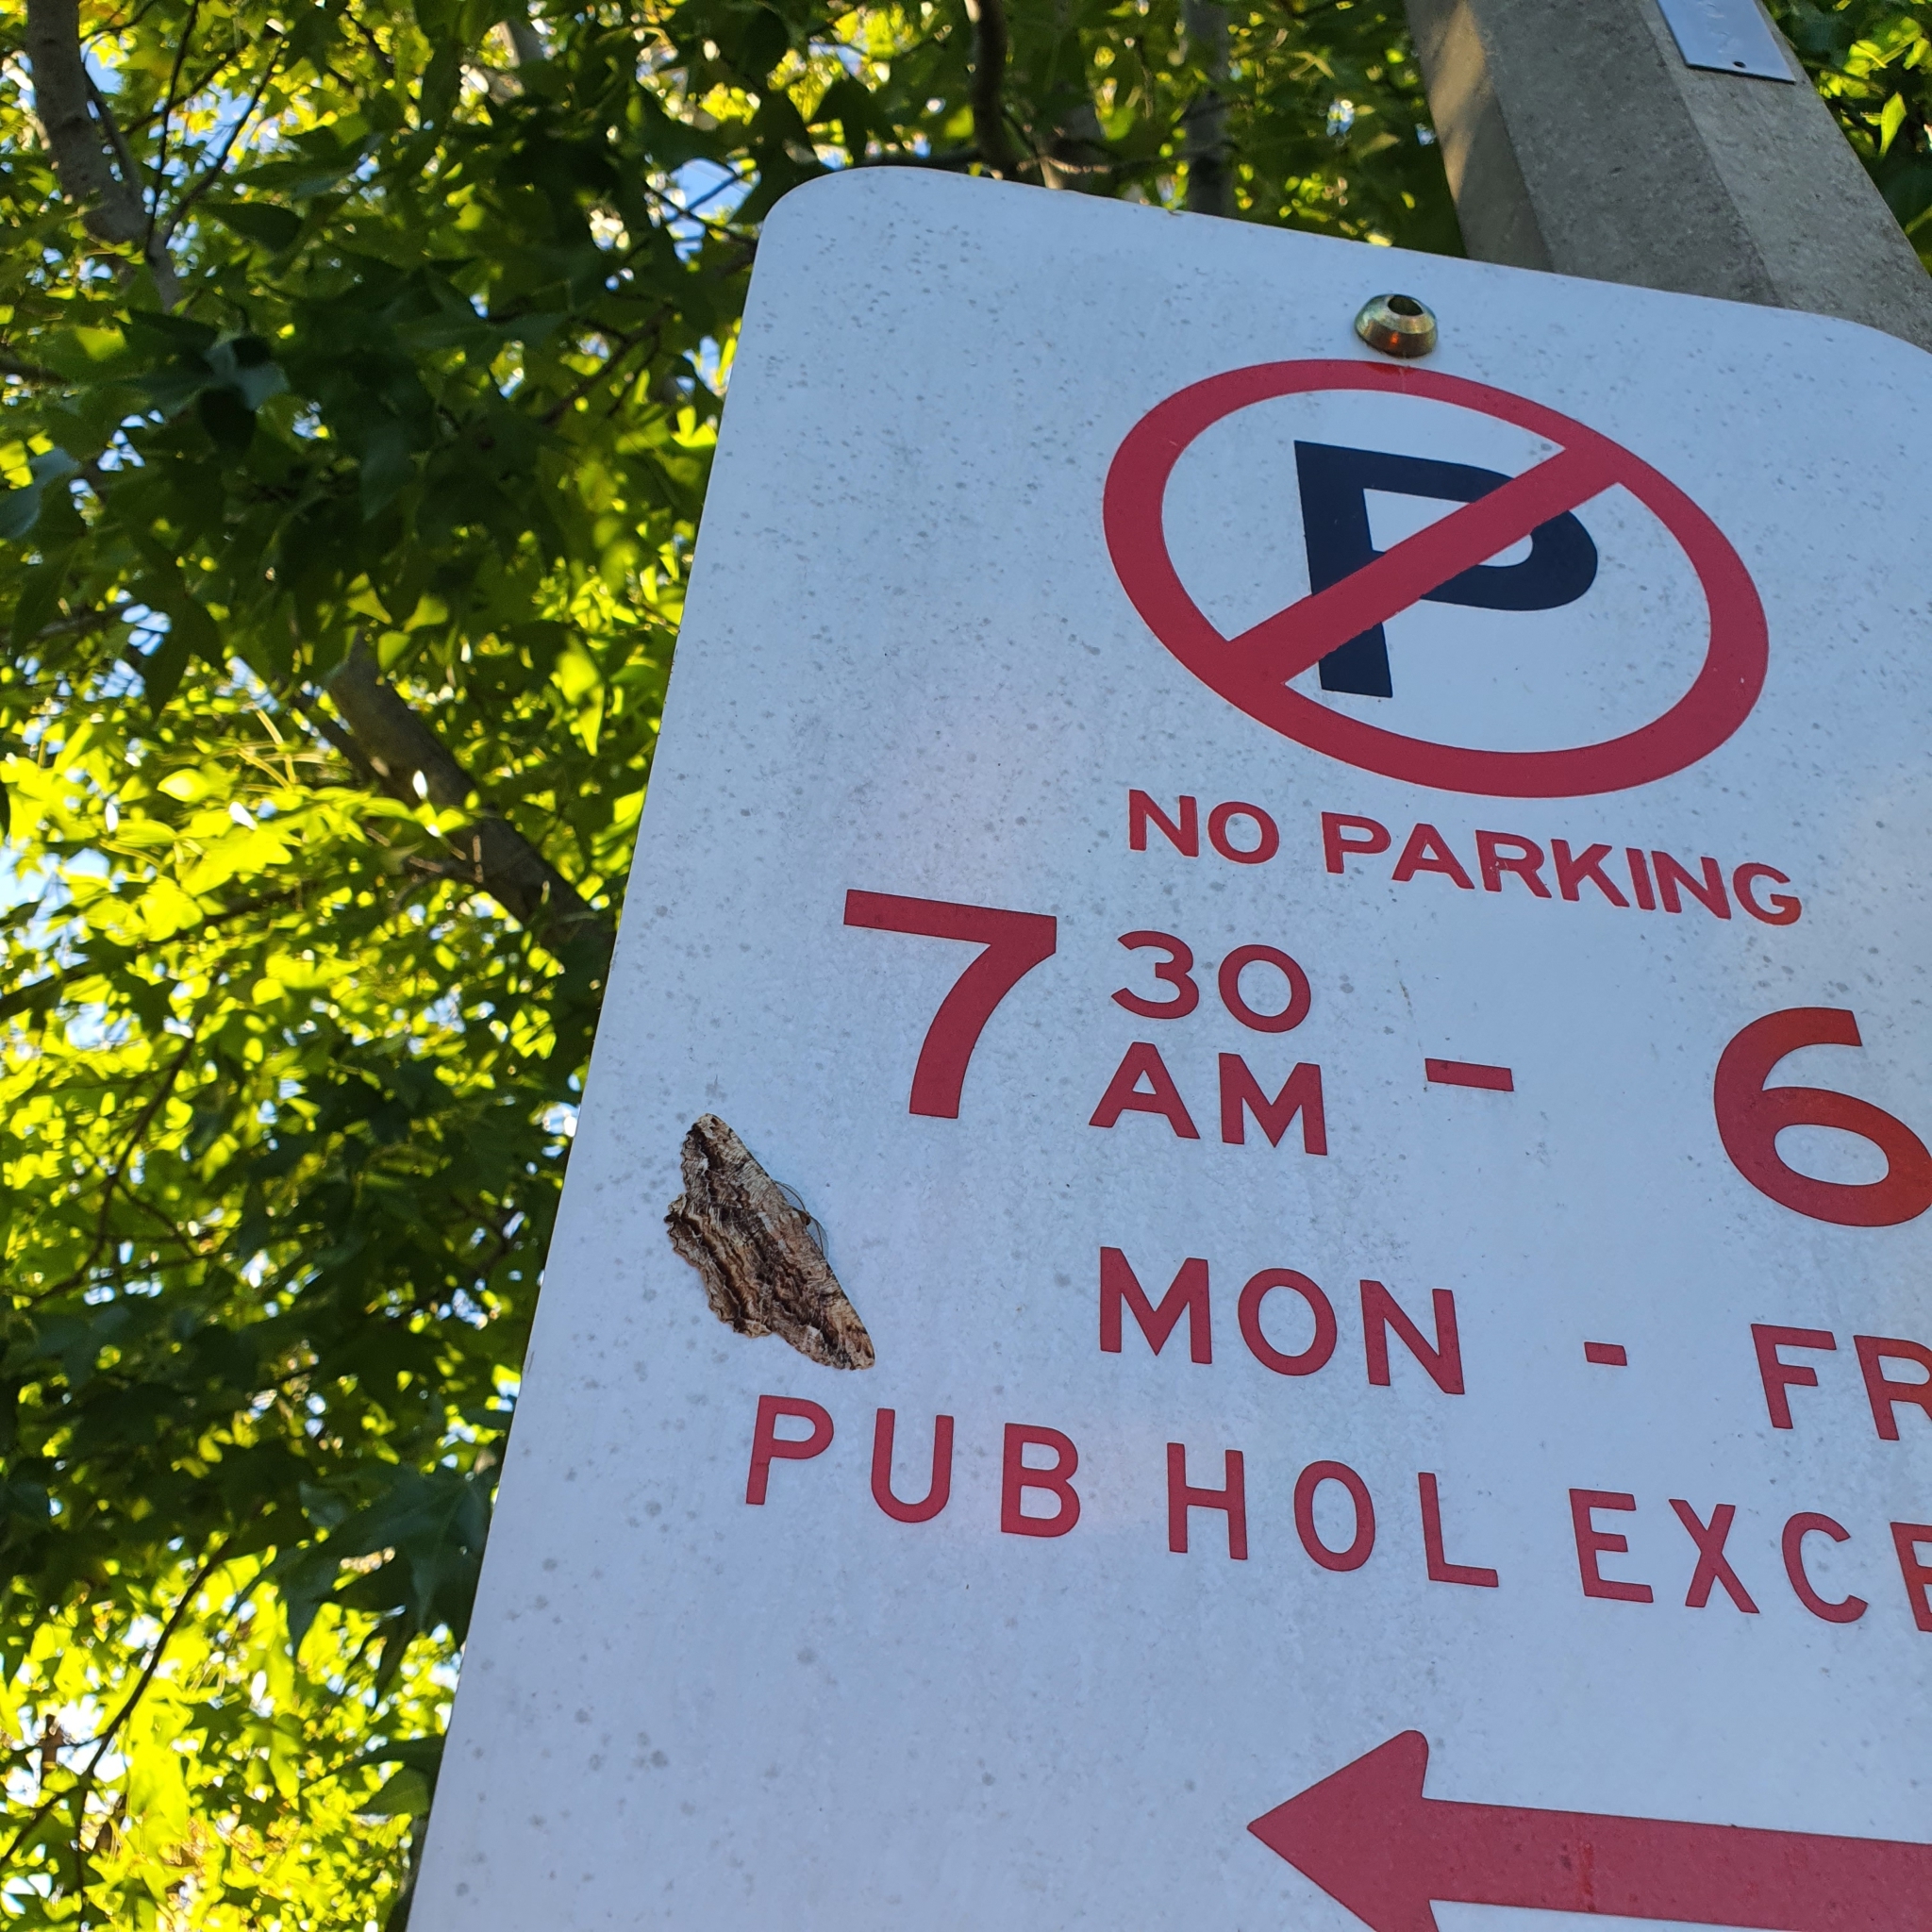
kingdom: Animalia
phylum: Arthropoda
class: Insecta
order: Lepidoptera
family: Geometridae
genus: Scioglyptis
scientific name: Scioglyptis lyciaria
